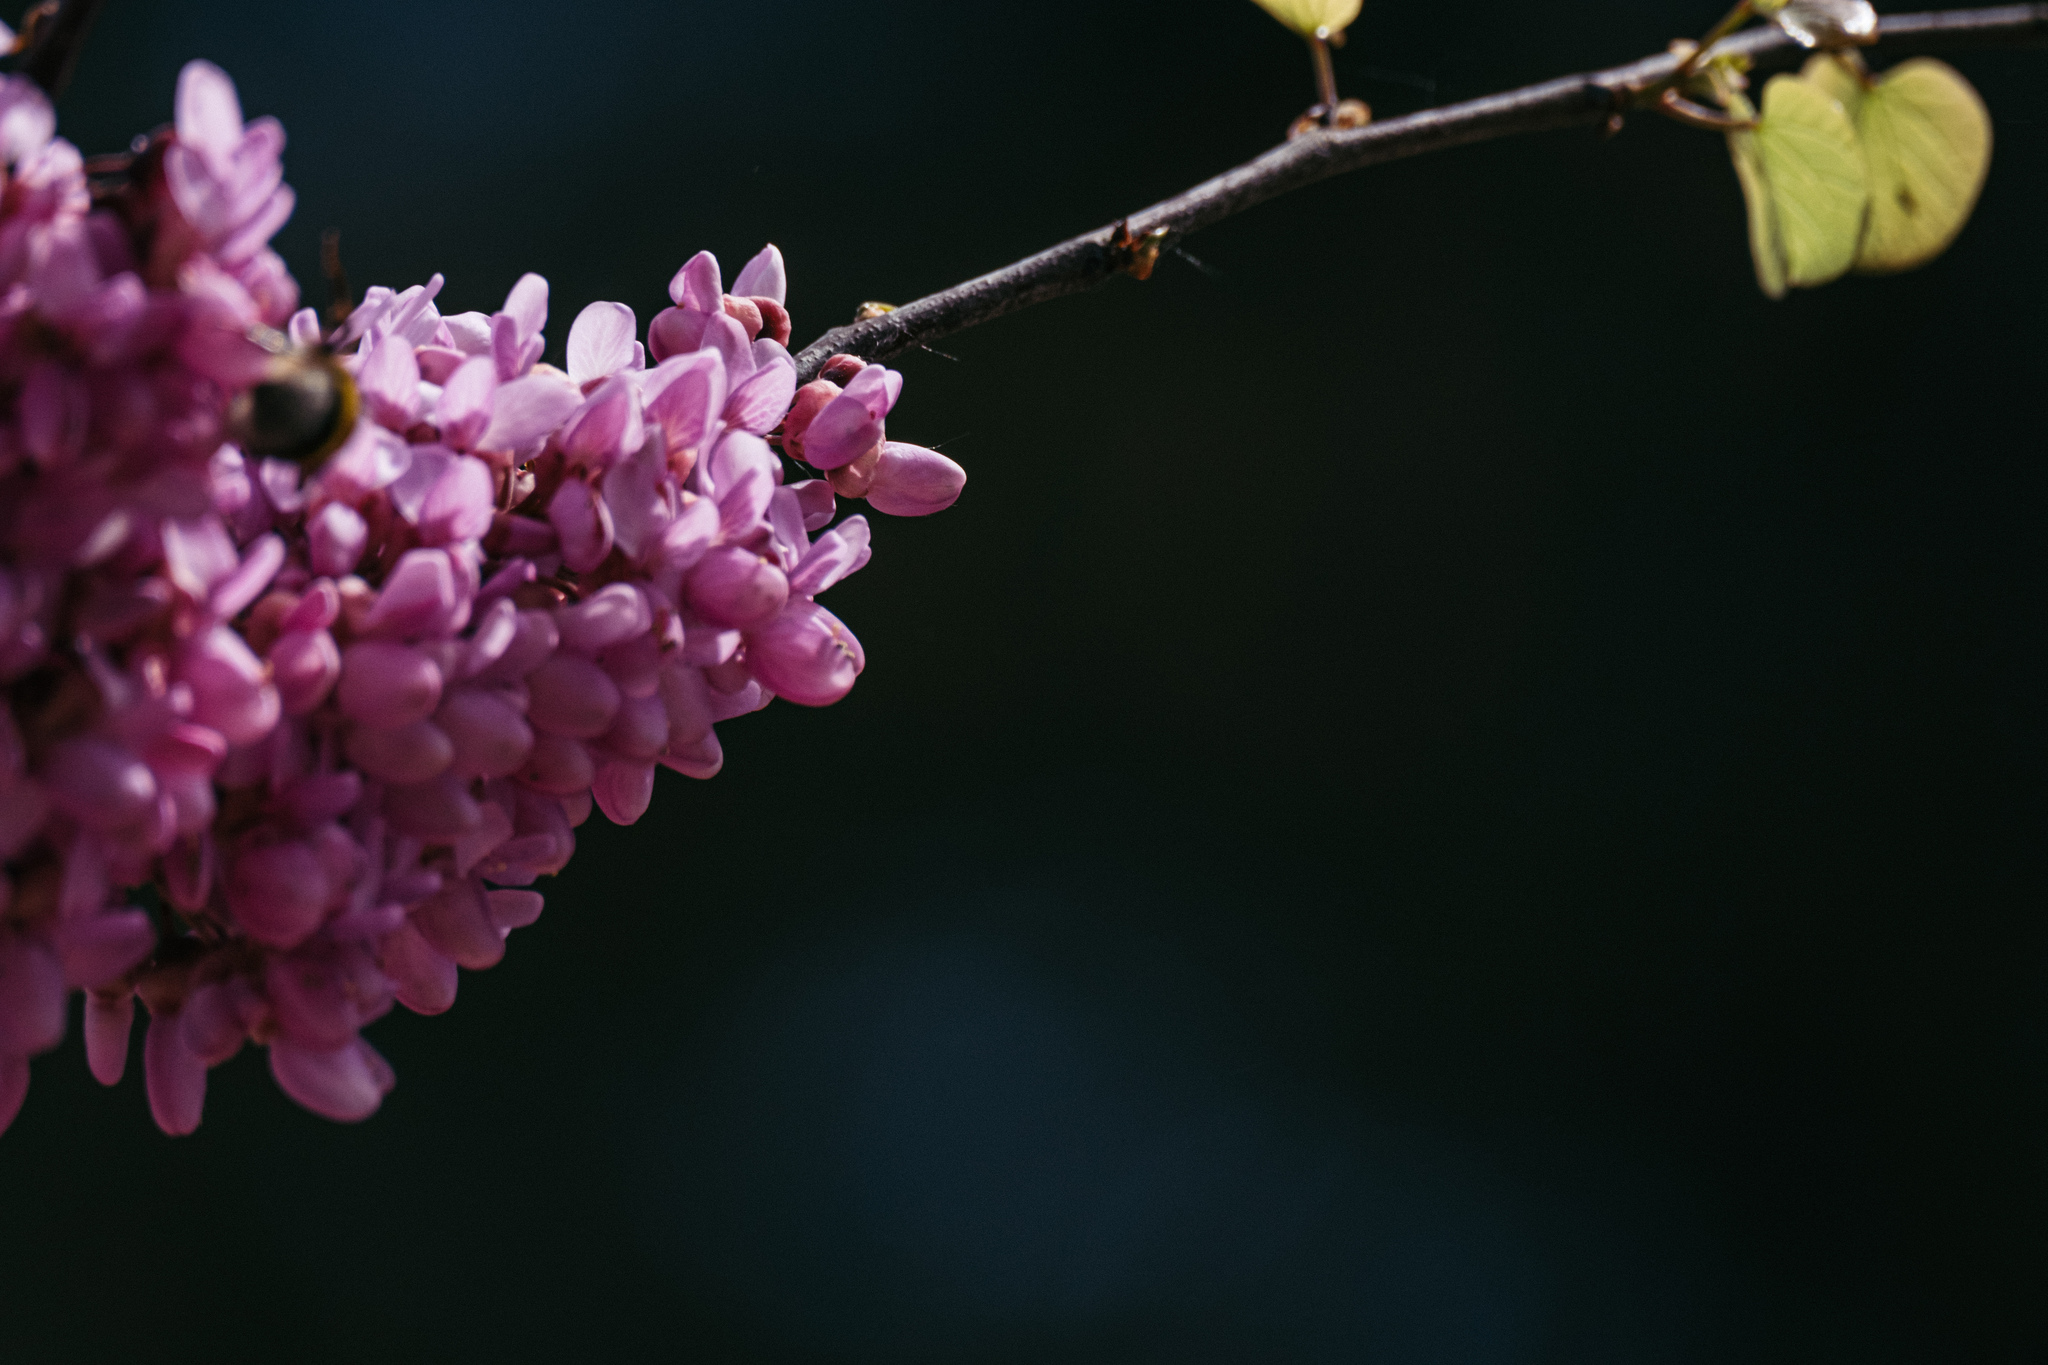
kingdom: Plantae
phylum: Tracheophyta
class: Magnoliopsida
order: Fabales
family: Fabaceae
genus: Cercis
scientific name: Cercis canadensis
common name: Eastern redbud
